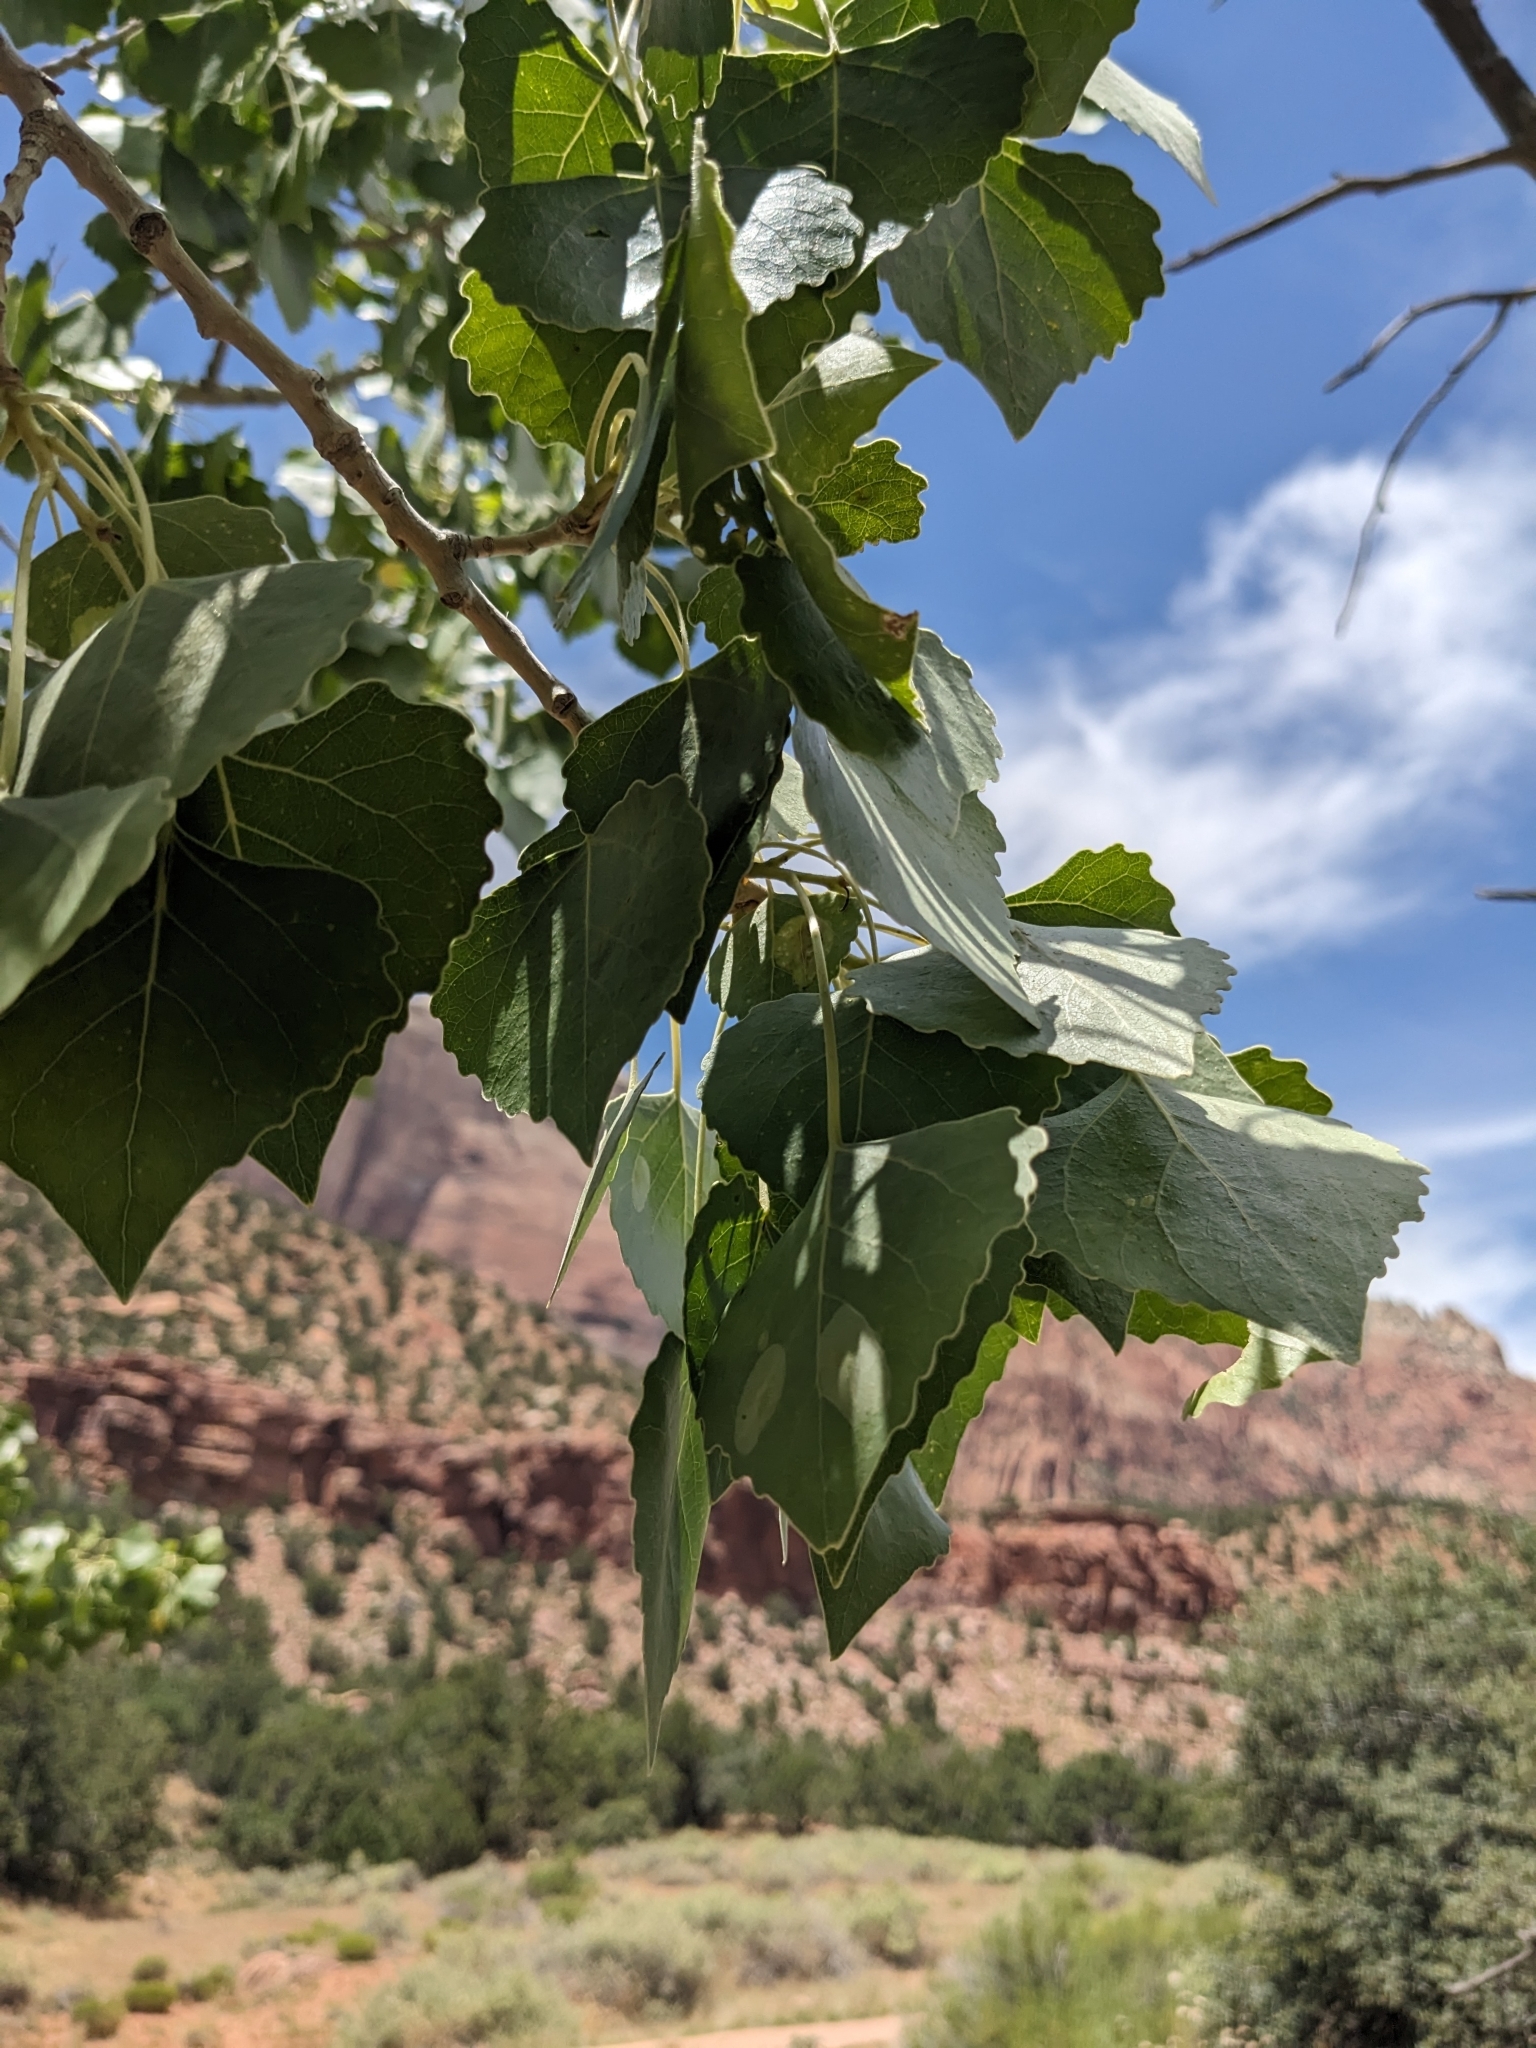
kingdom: Plantae
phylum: Tracheophyta
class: Magnoliopsida
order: Malpighiales
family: Salicaceae
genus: Populus
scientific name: Populus fremontii
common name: Fremont's cottonwood
